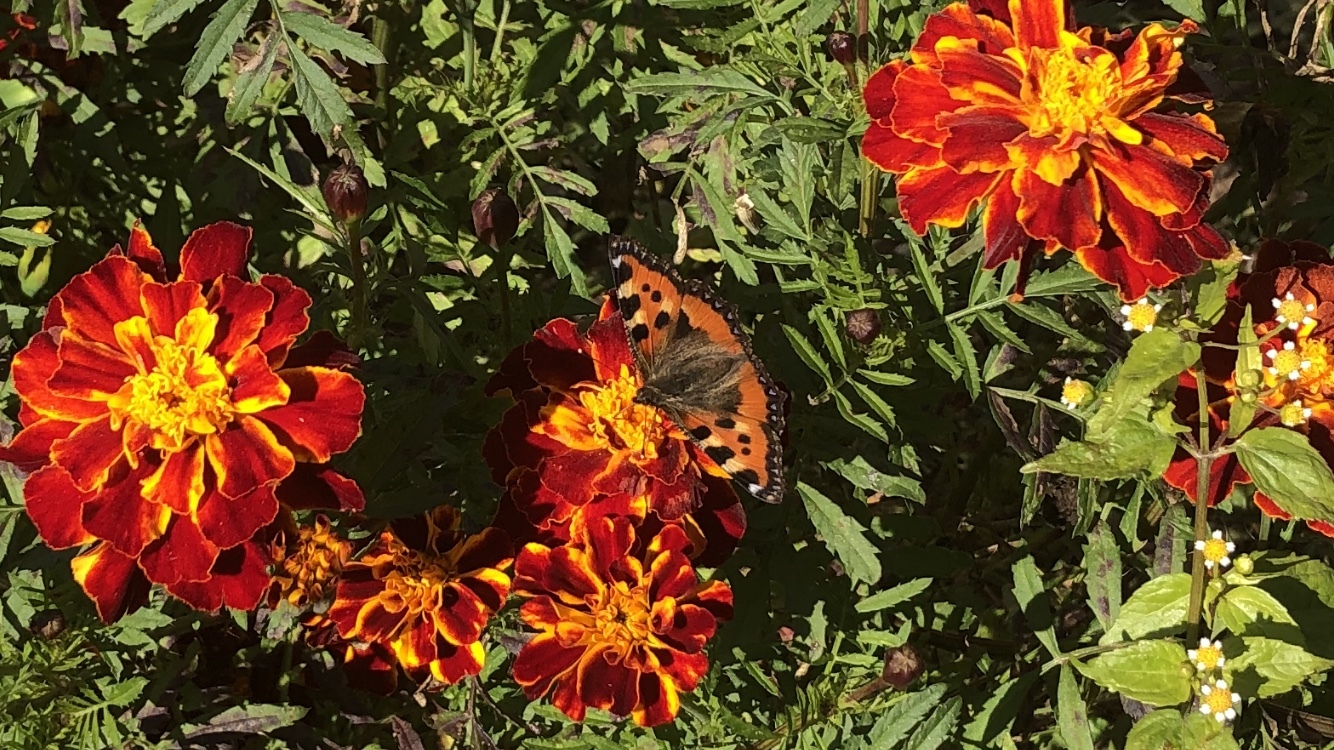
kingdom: Animalia
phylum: Arthropoda
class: Insecta
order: Lepidoptera
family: Nymphalidae
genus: Aglais
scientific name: Aglais urticae
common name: Small tortoiseshell
